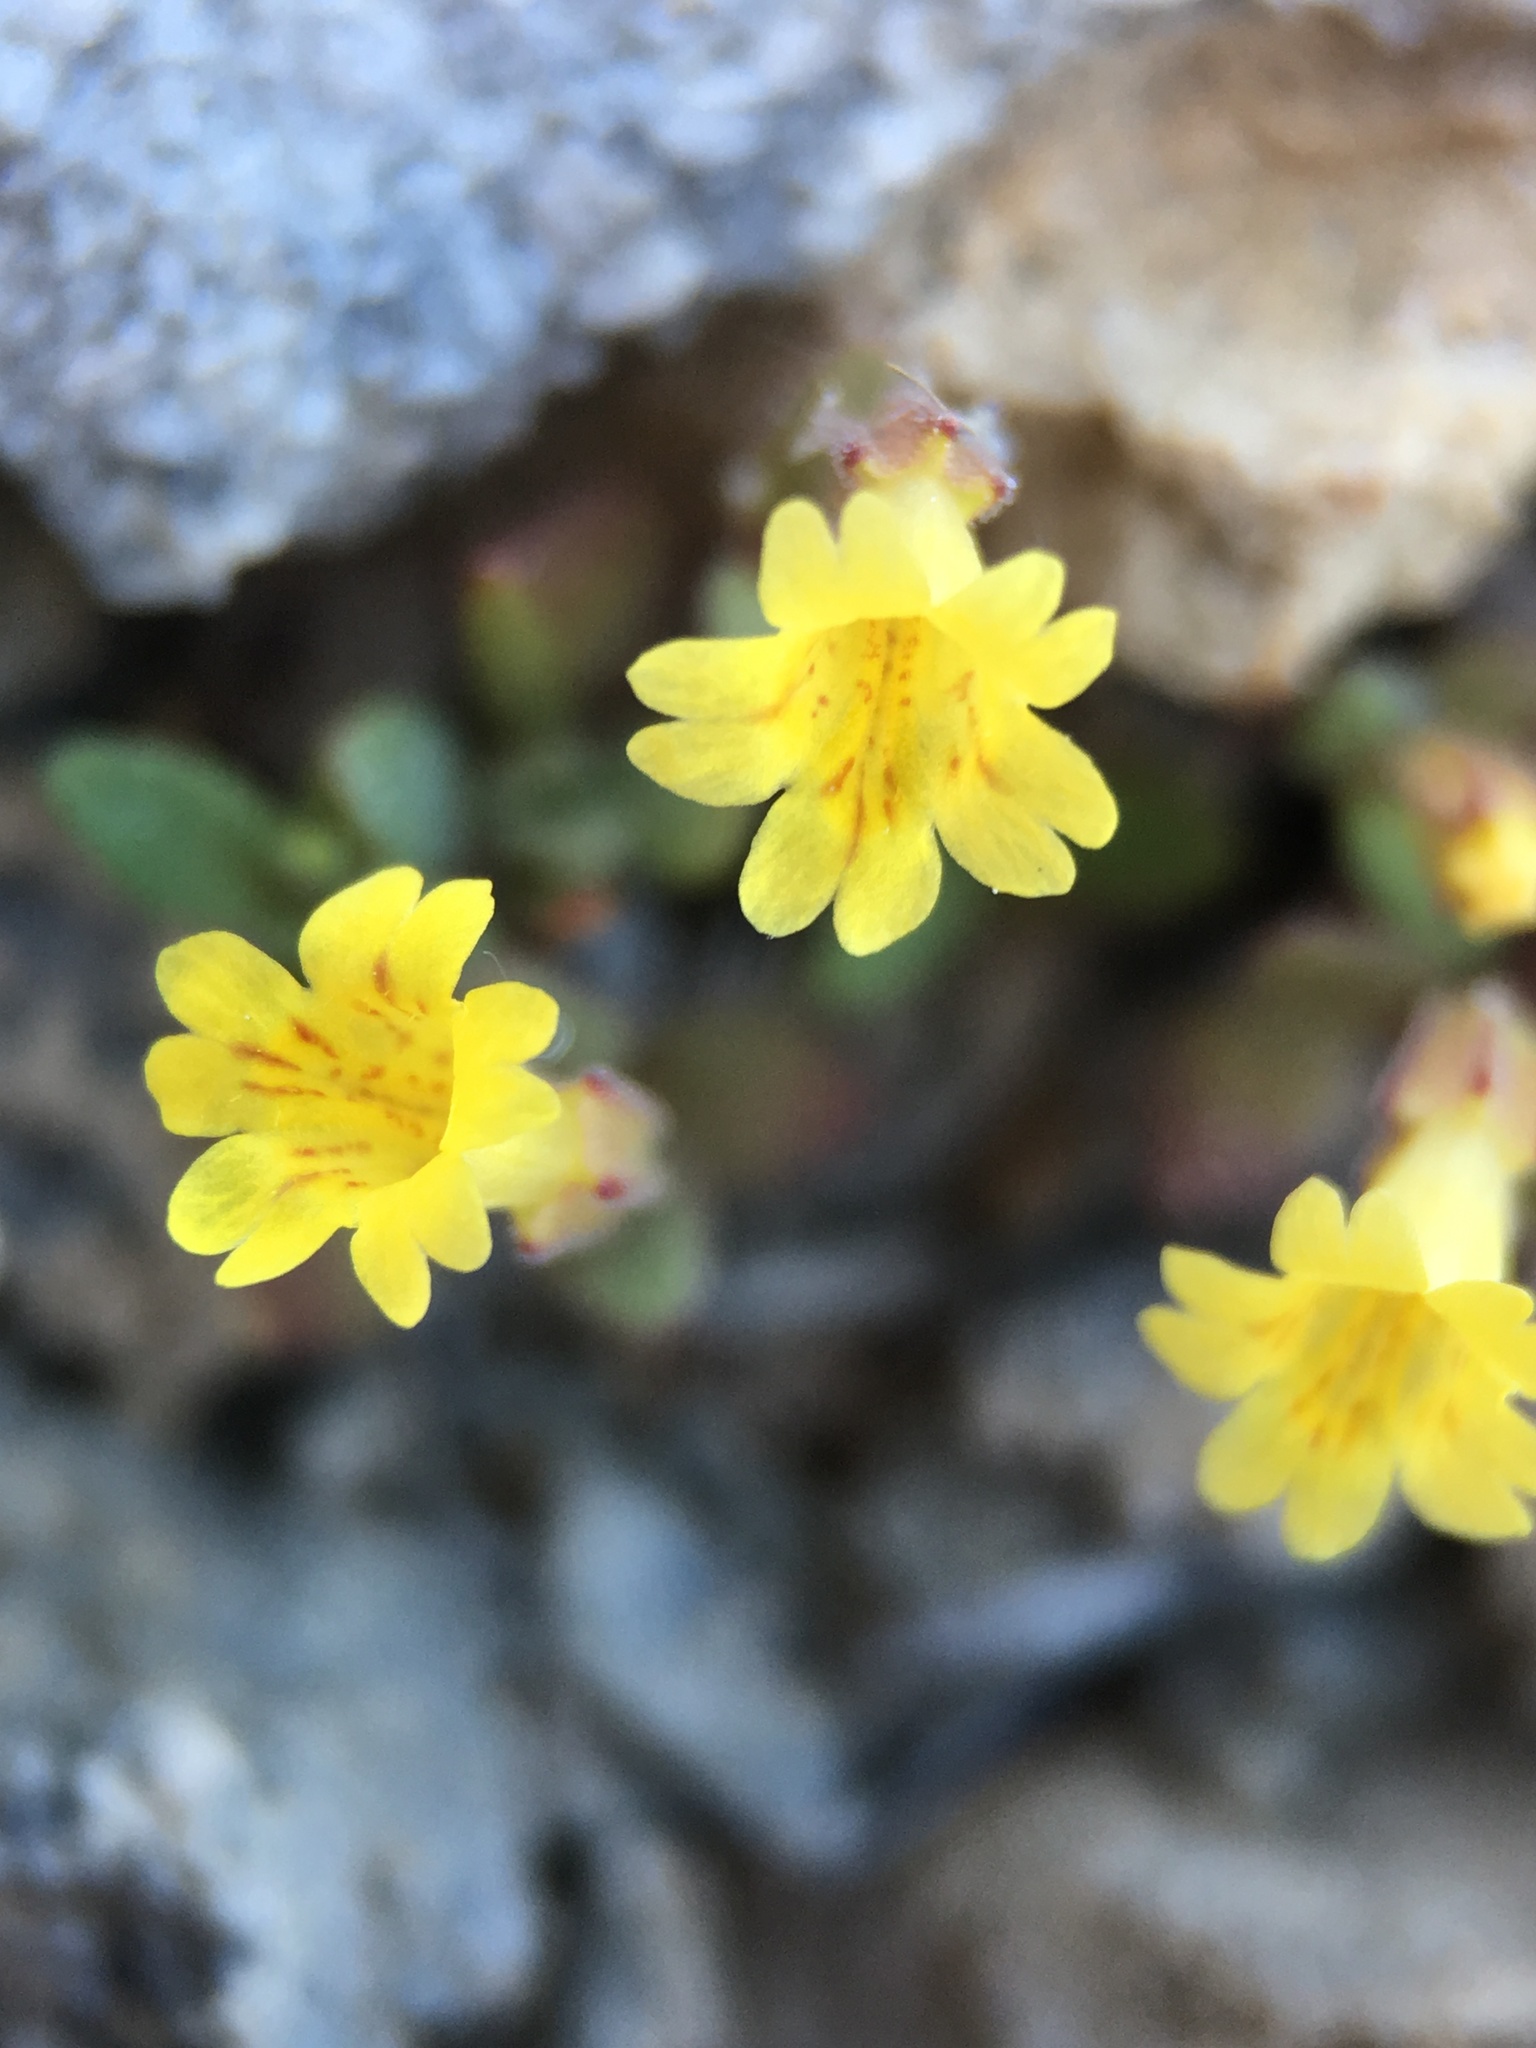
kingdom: Plantae
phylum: Tracheophyta
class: Magnoliopsida
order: Lamiales
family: Phrymaceae
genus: Erythranthe
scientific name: Erythranthe calcicola
